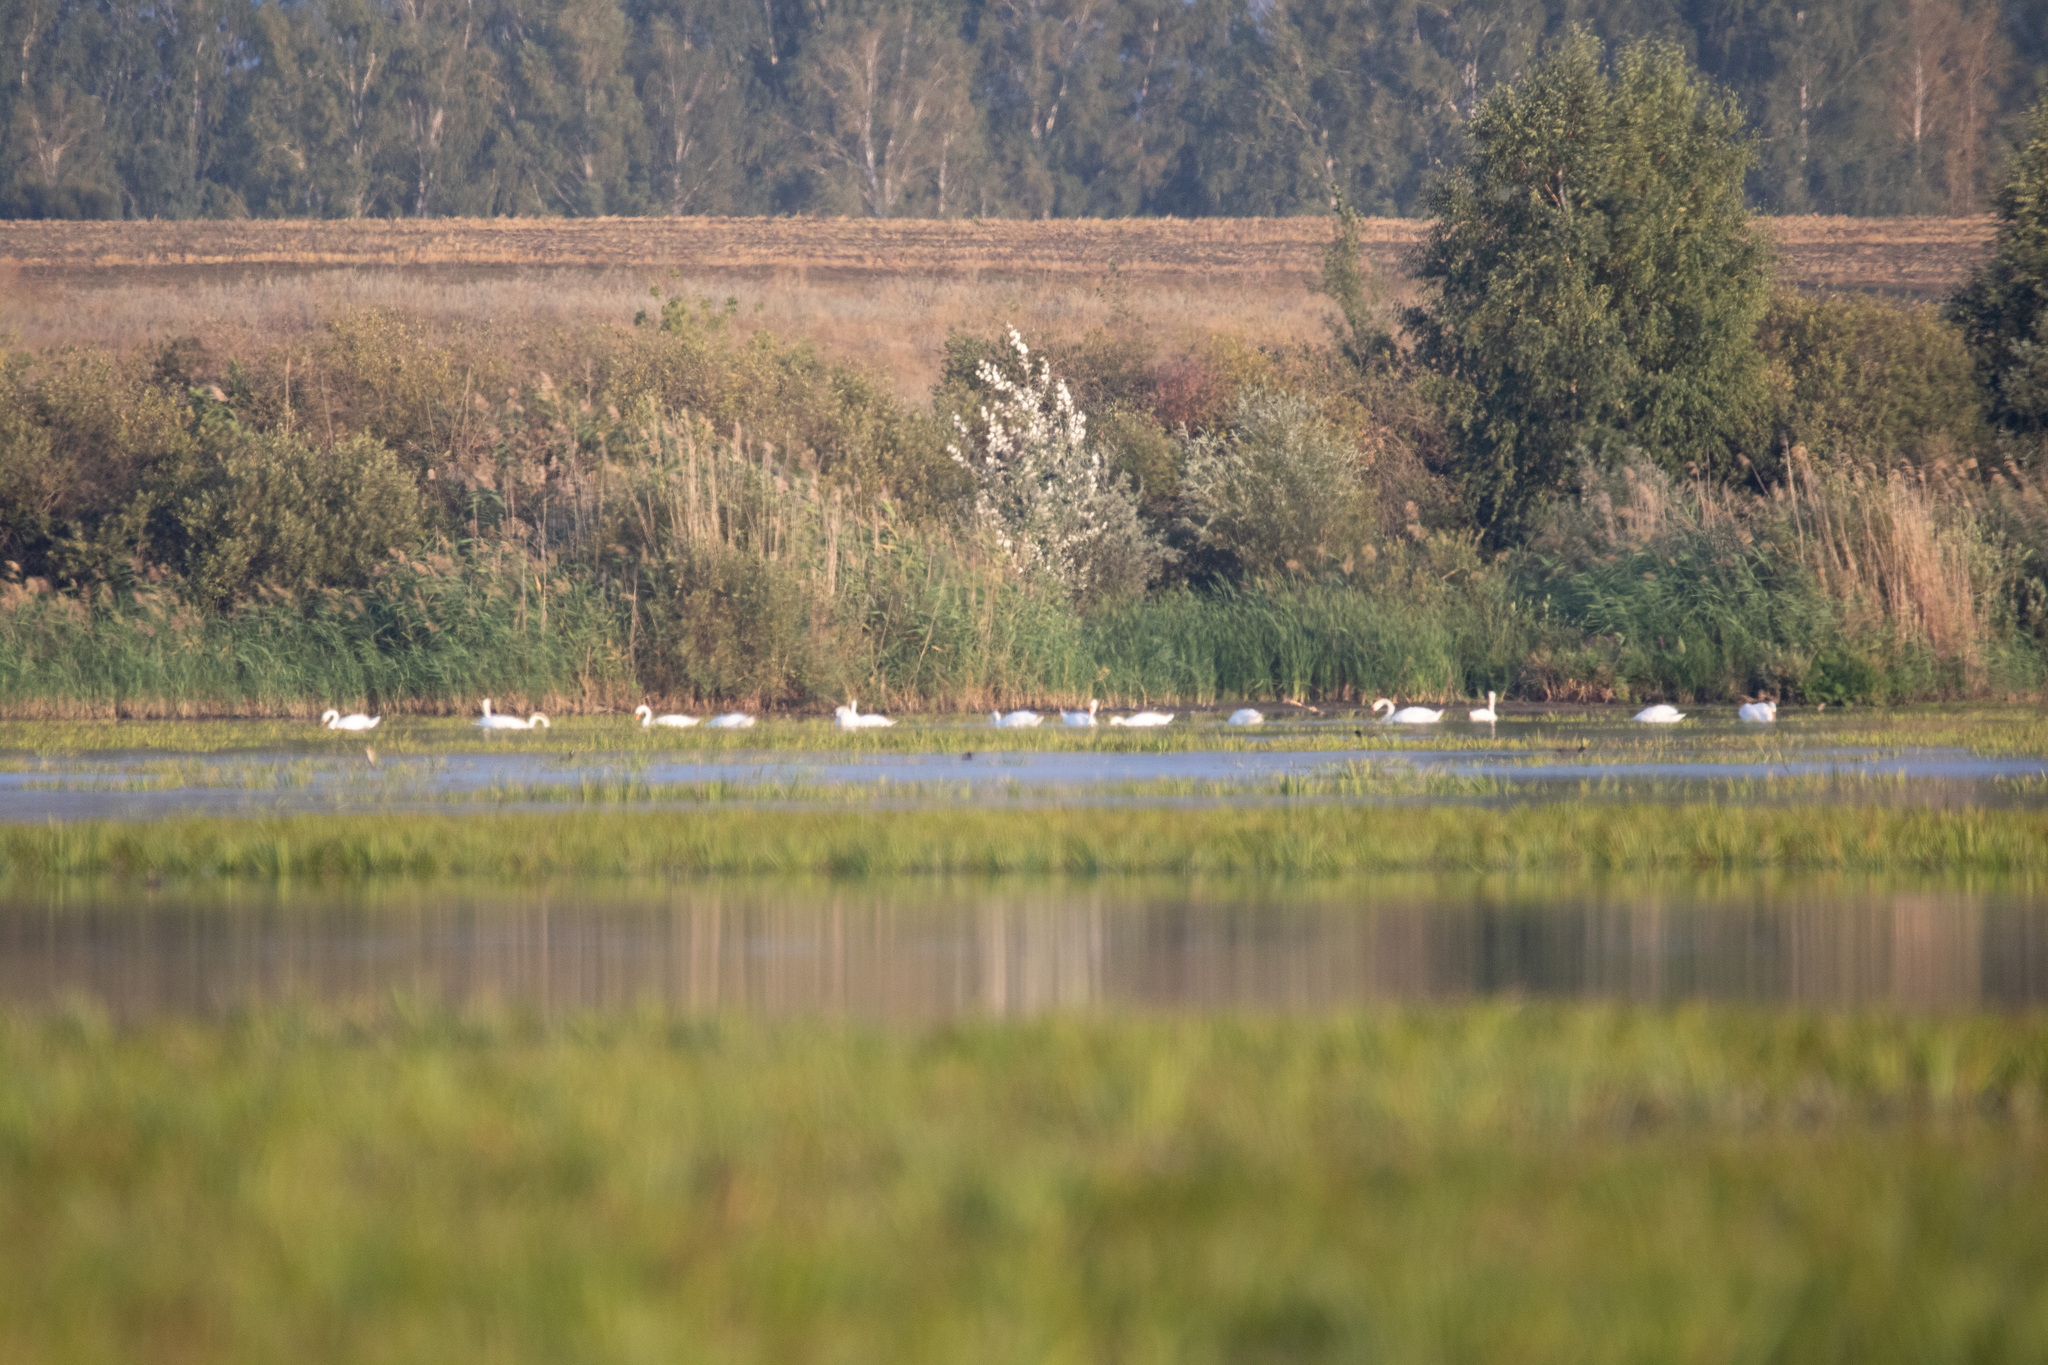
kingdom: Animalia
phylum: Chordata
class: Aves
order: Anseriformes
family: Anatidae
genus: Cygnus
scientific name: Cygnus olor
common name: Mute swan
